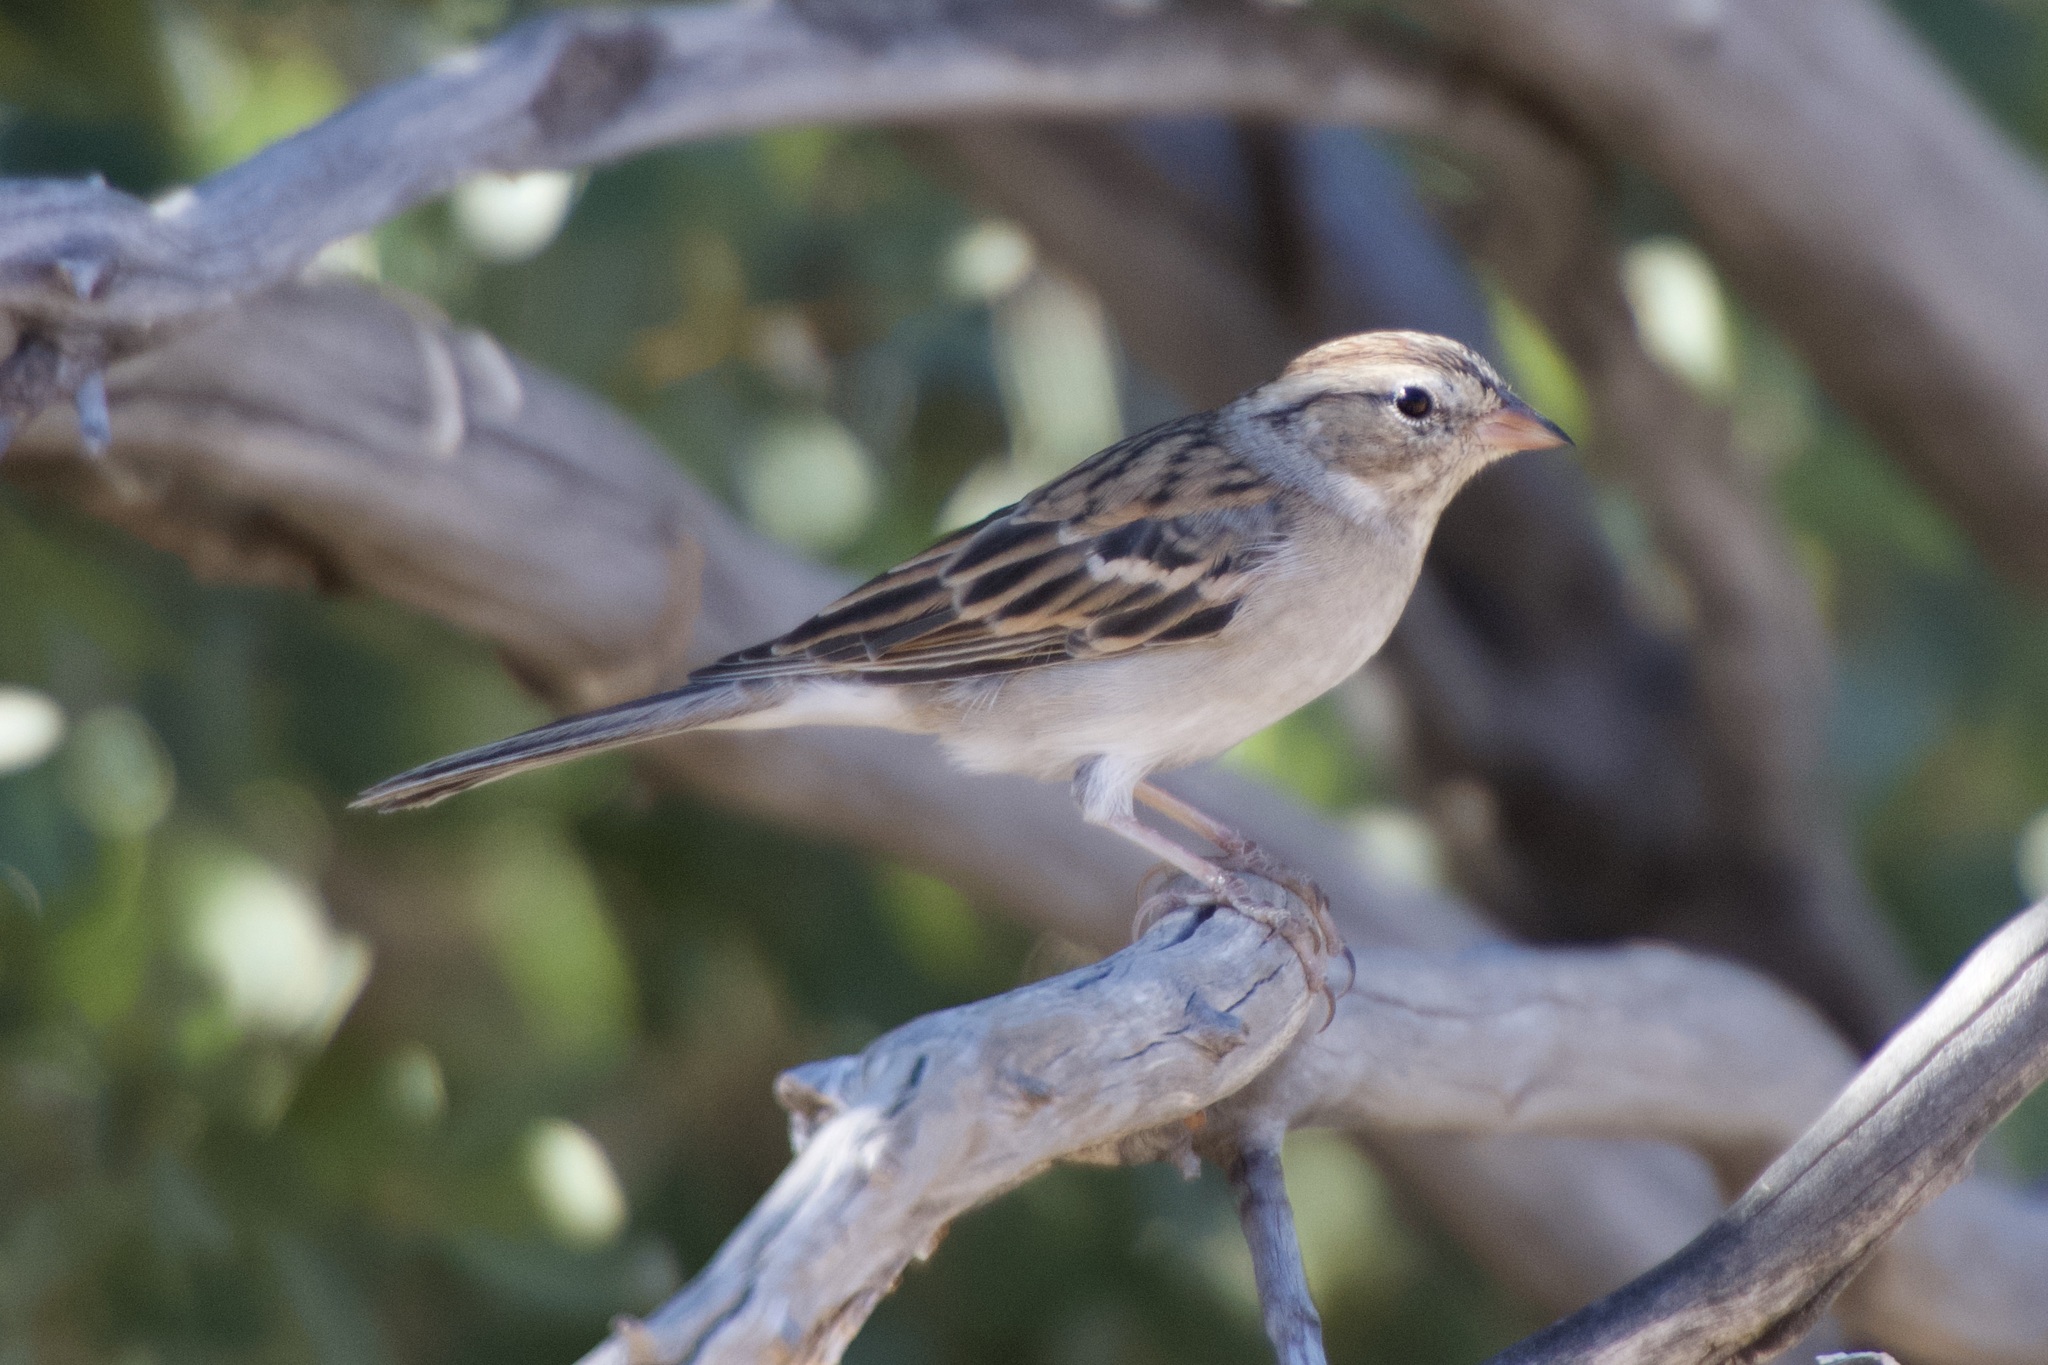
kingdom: Animalia
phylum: Chordata
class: Aves
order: Passeriformes
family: Passerellidae
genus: Spizella
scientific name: Spizella passerina
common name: Chipping sparrow
